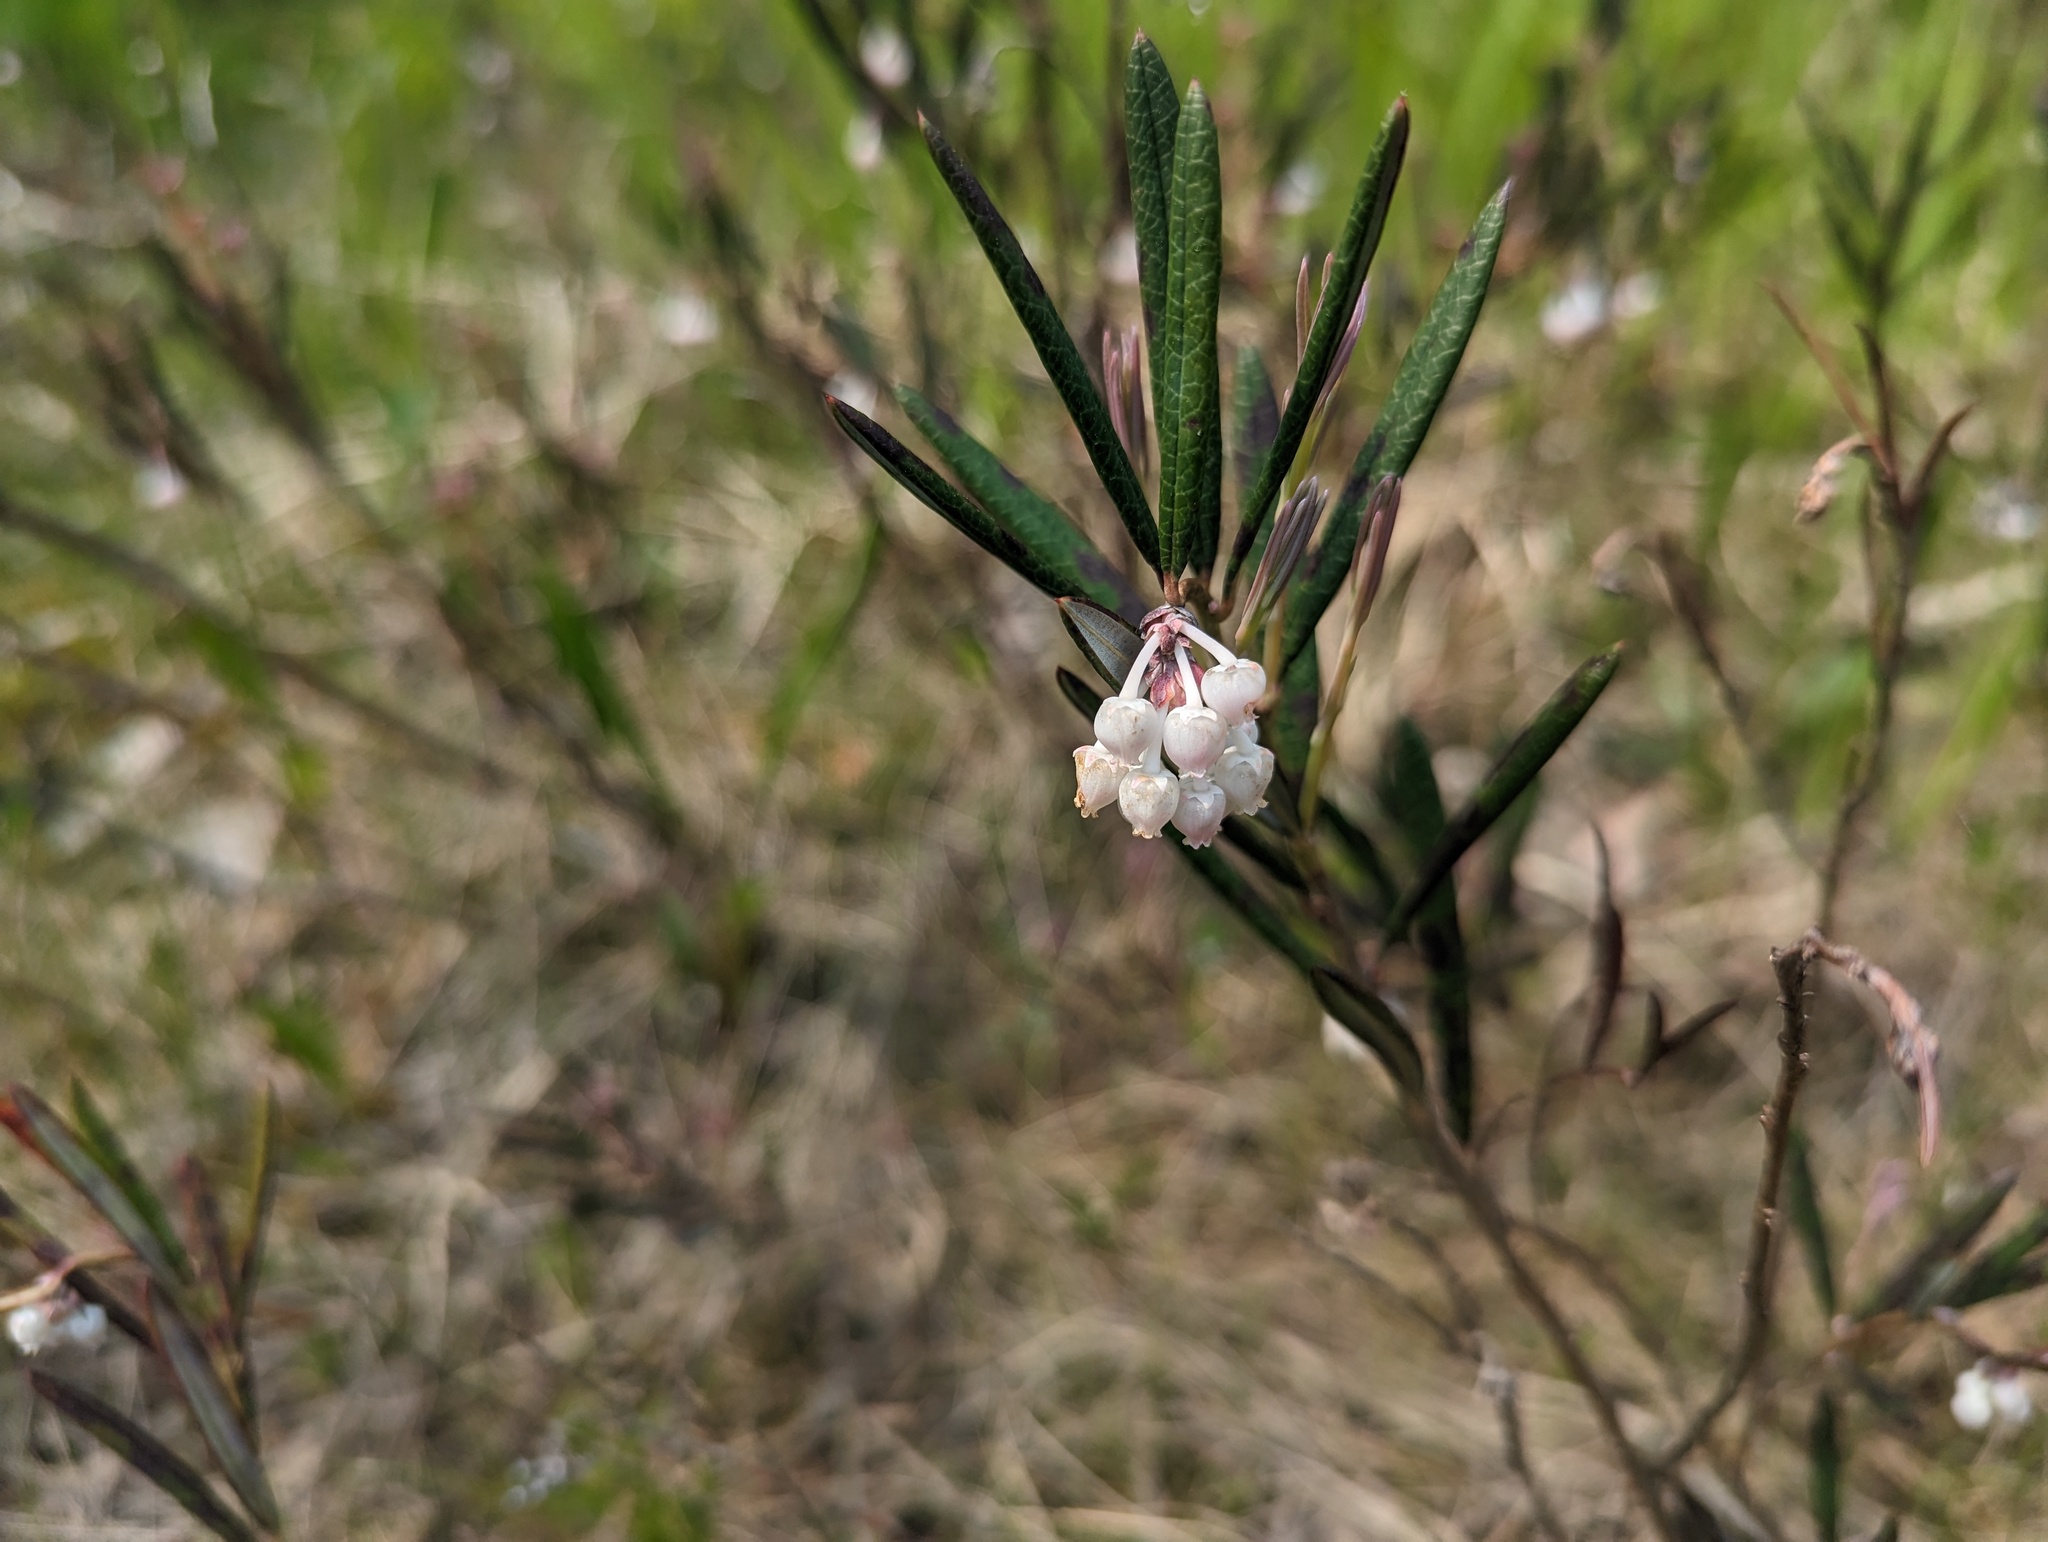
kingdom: Plantae
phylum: Tracheophyta
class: Magnoliopsida
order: Ericales
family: Ericaceae
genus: Andromeda
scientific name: Andromeda polifolia
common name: Bog-rosemary
